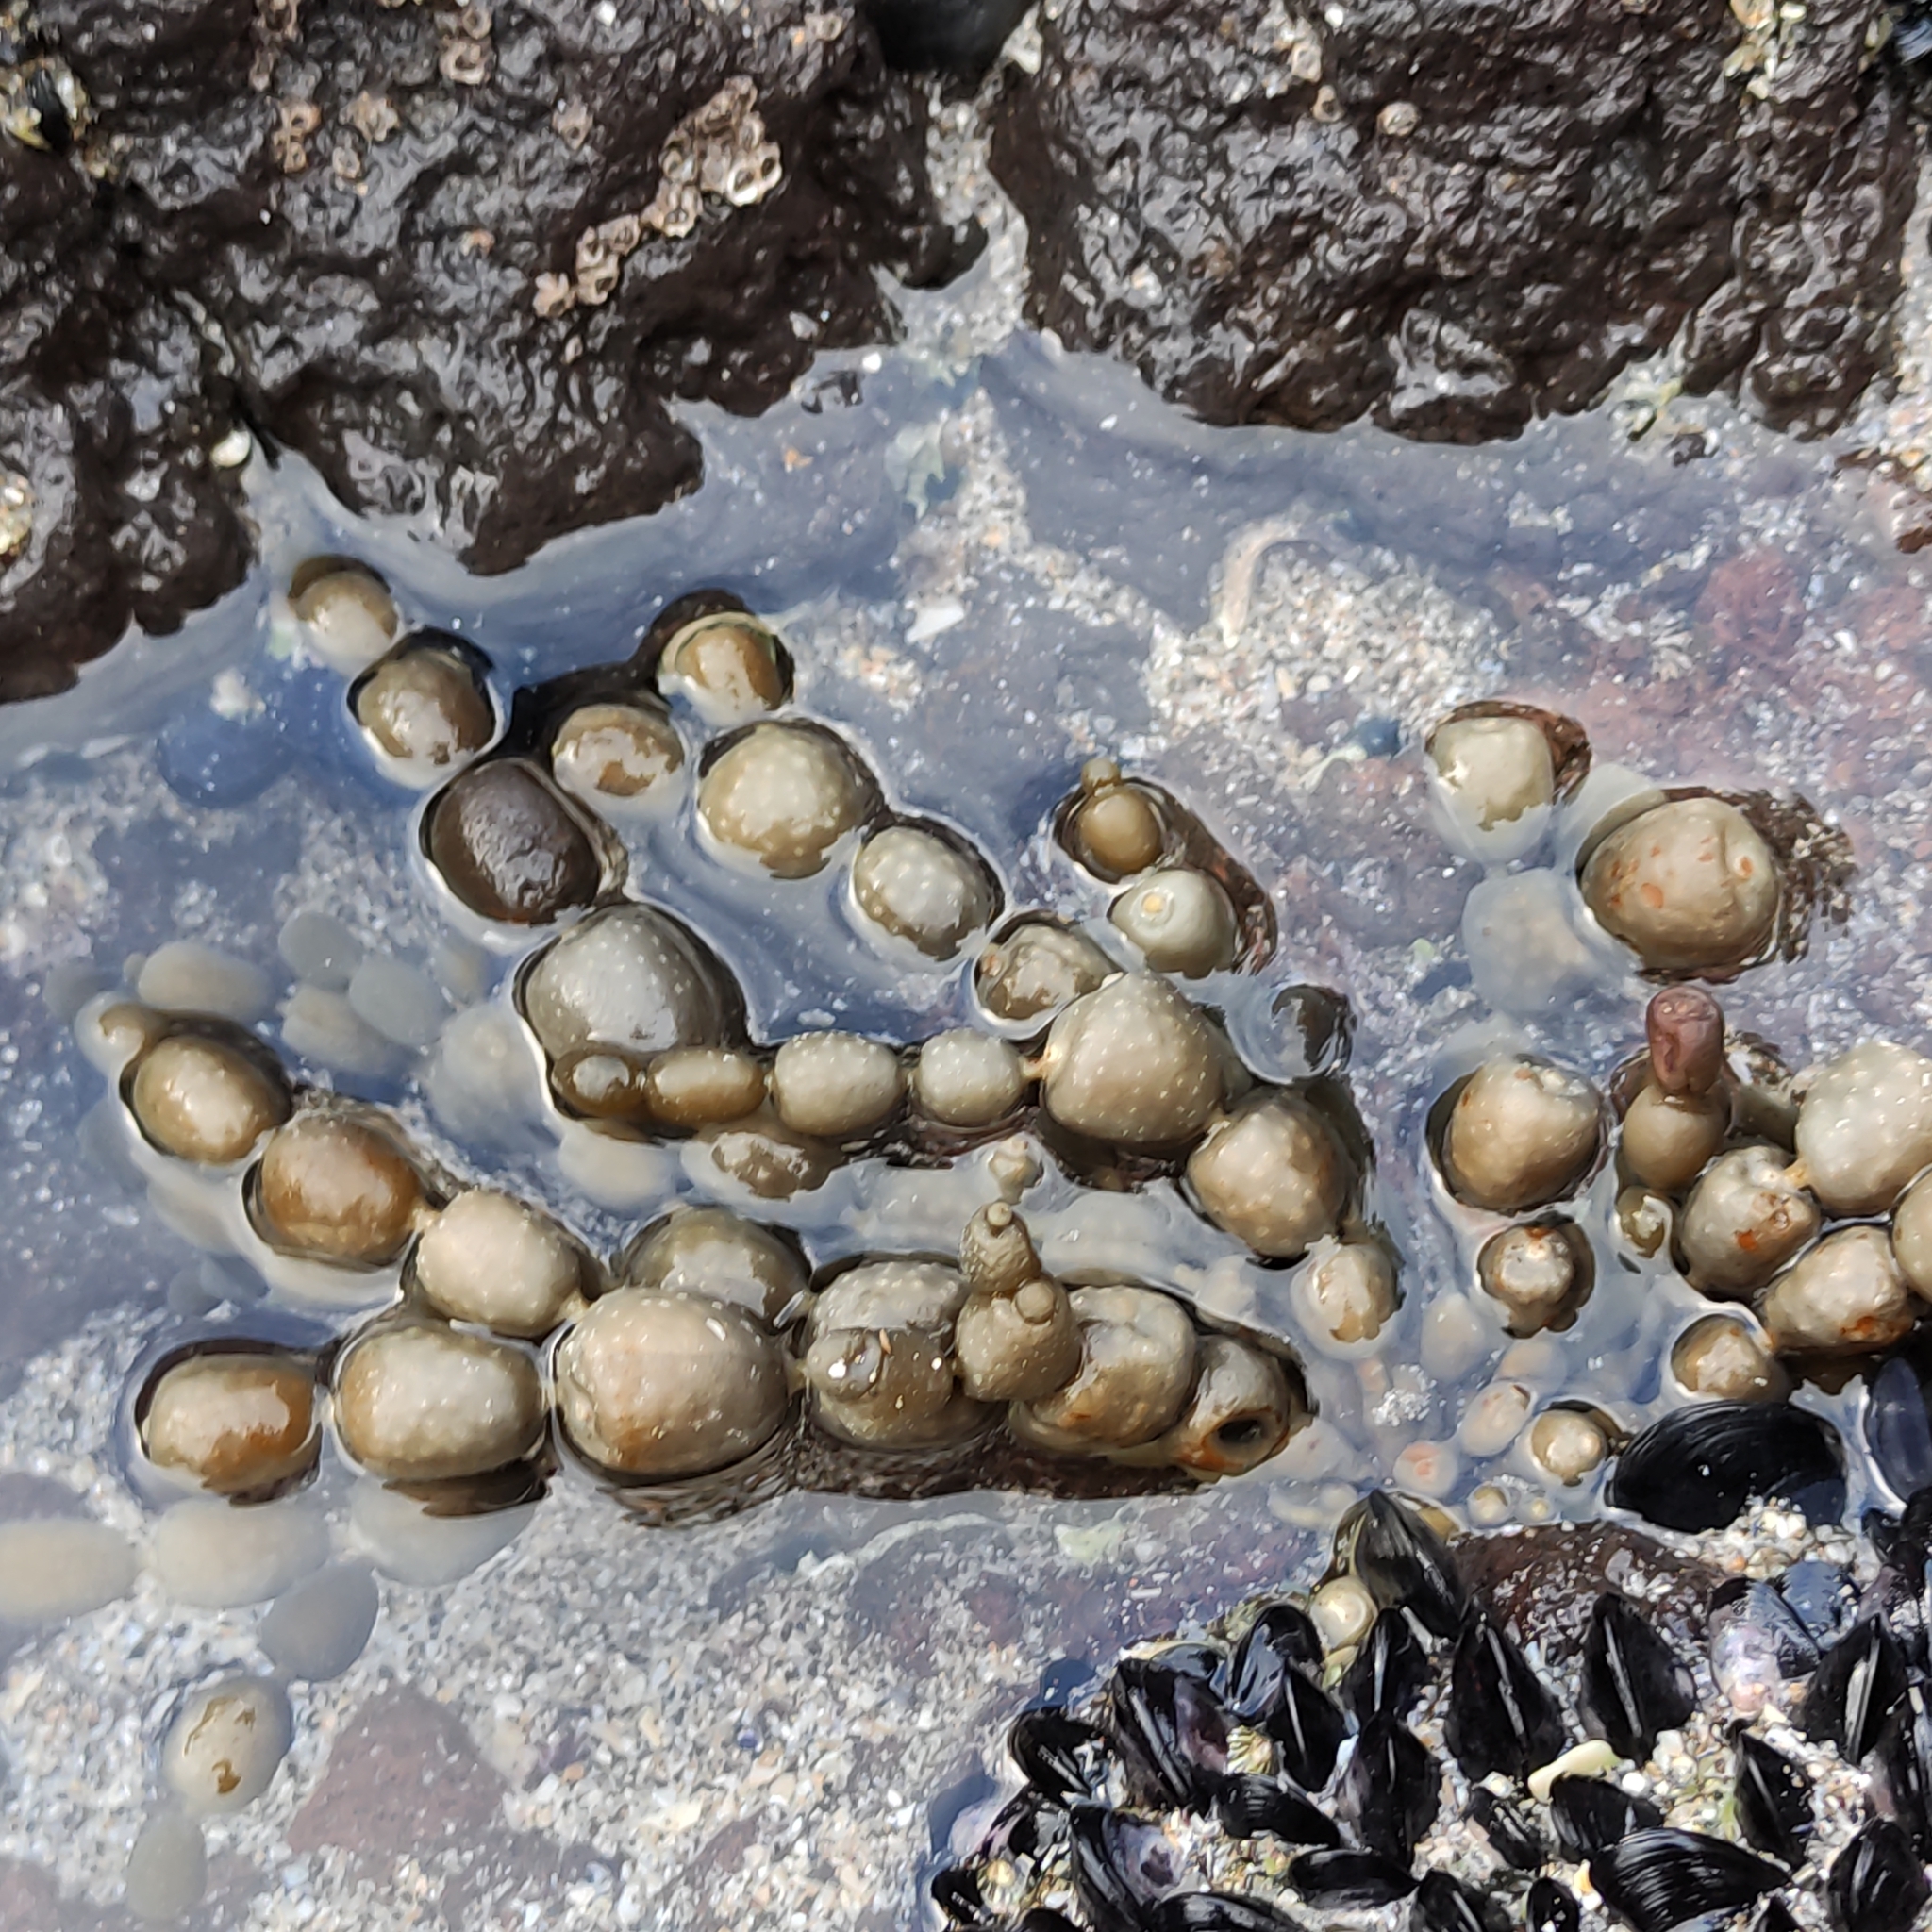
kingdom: Chromista
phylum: Ochrophyta
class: Phaeophyceae
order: Fucales
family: Hormosiraceae
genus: Hormosira
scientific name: Hormosira banksii
